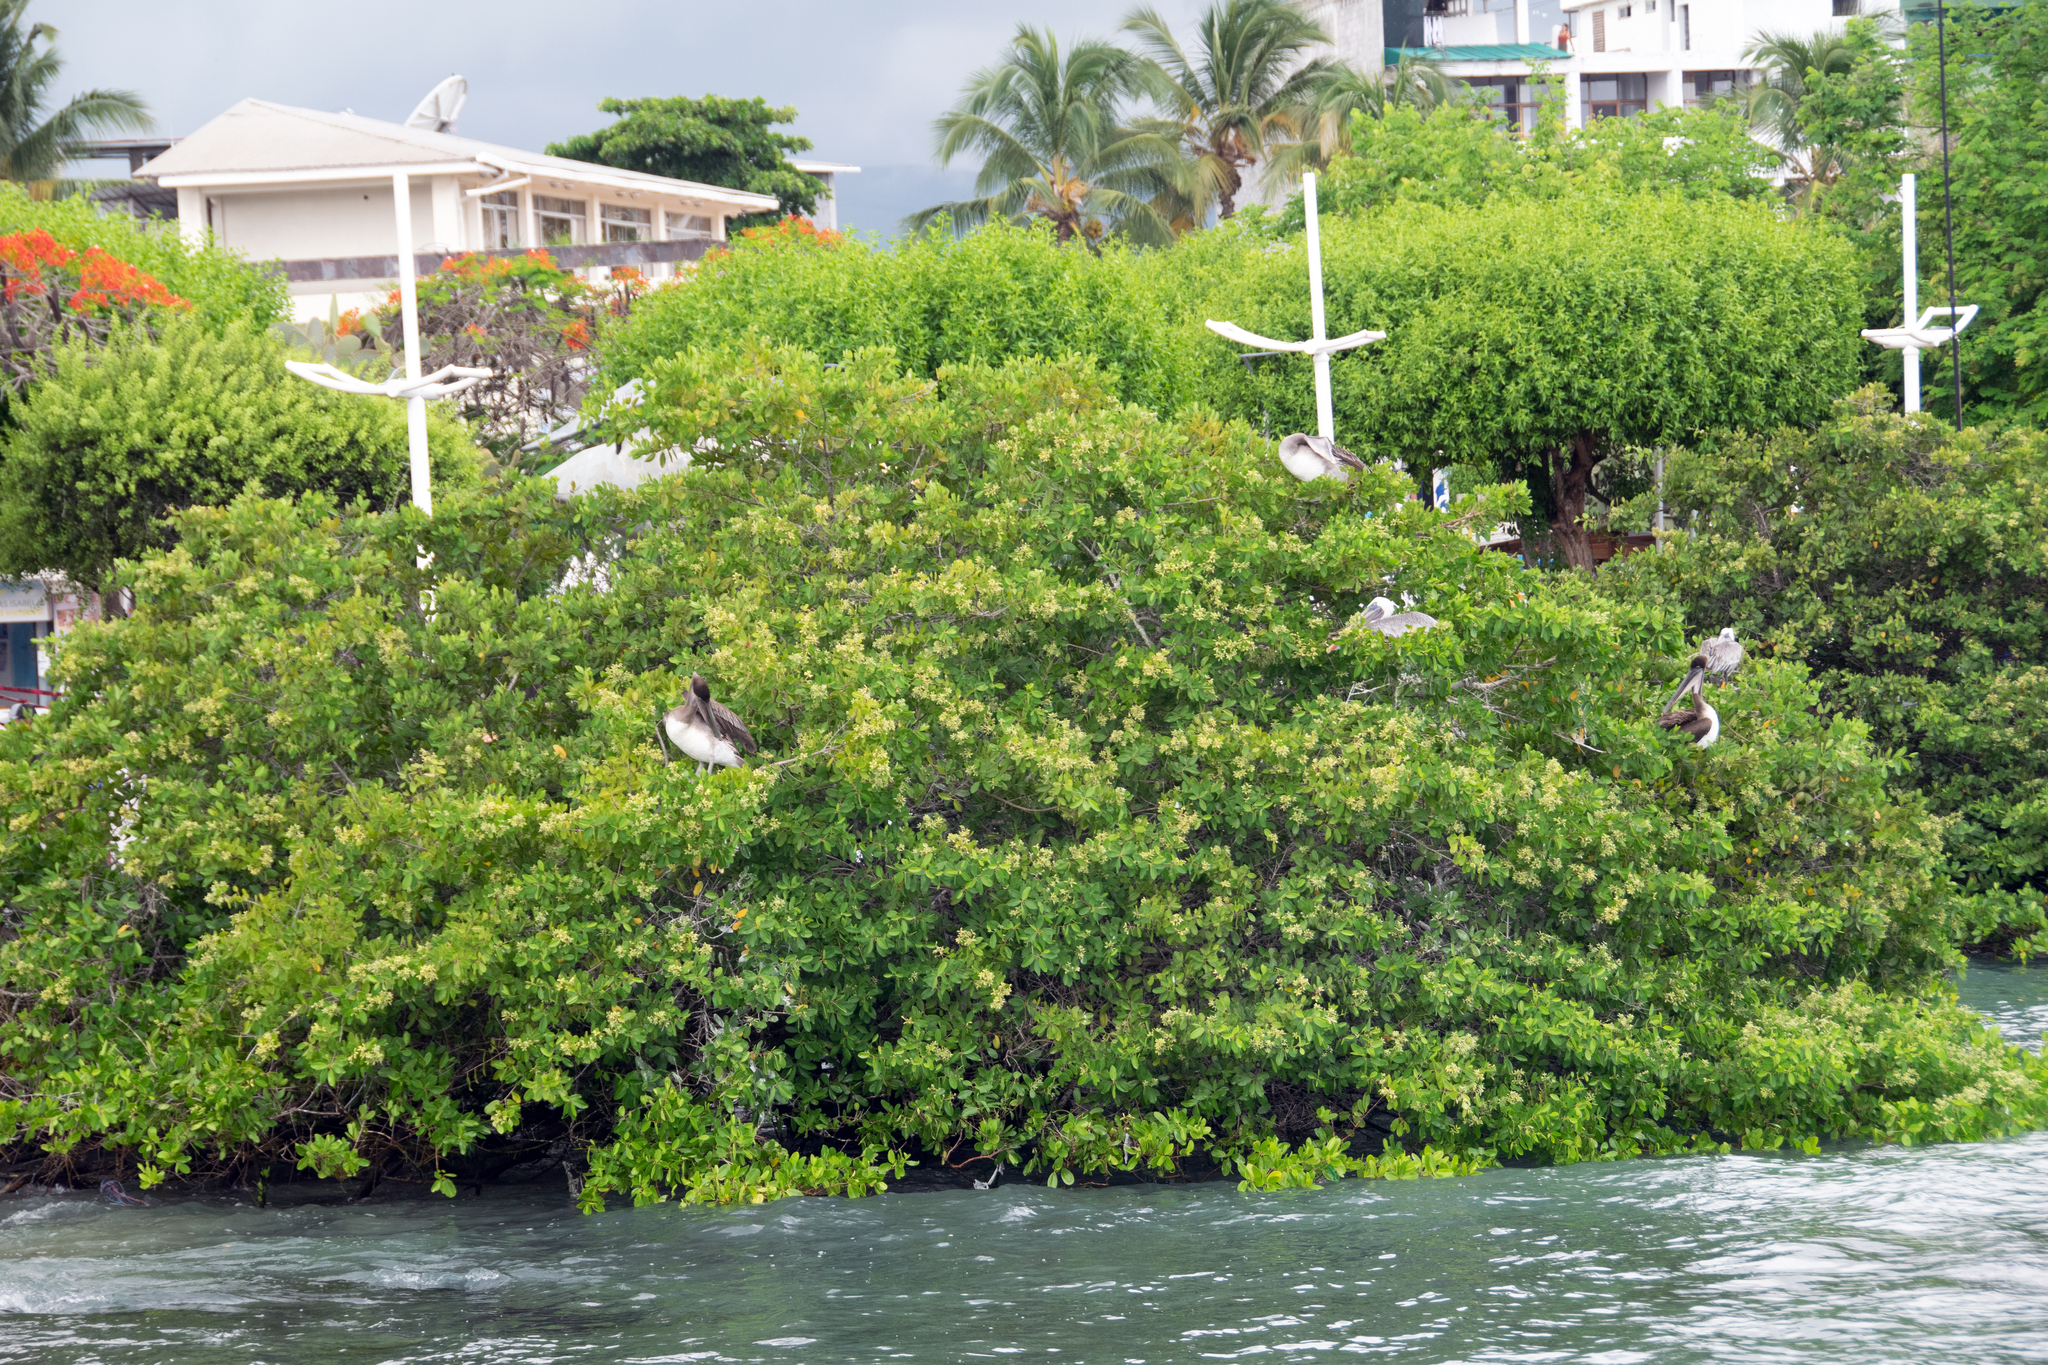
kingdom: Plantae
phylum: Tracheophyta
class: Magnoliopsida
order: Myrtales
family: Combretaceae
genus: Laguncularia
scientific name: Laguncularia racemosa
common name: White mangrove
